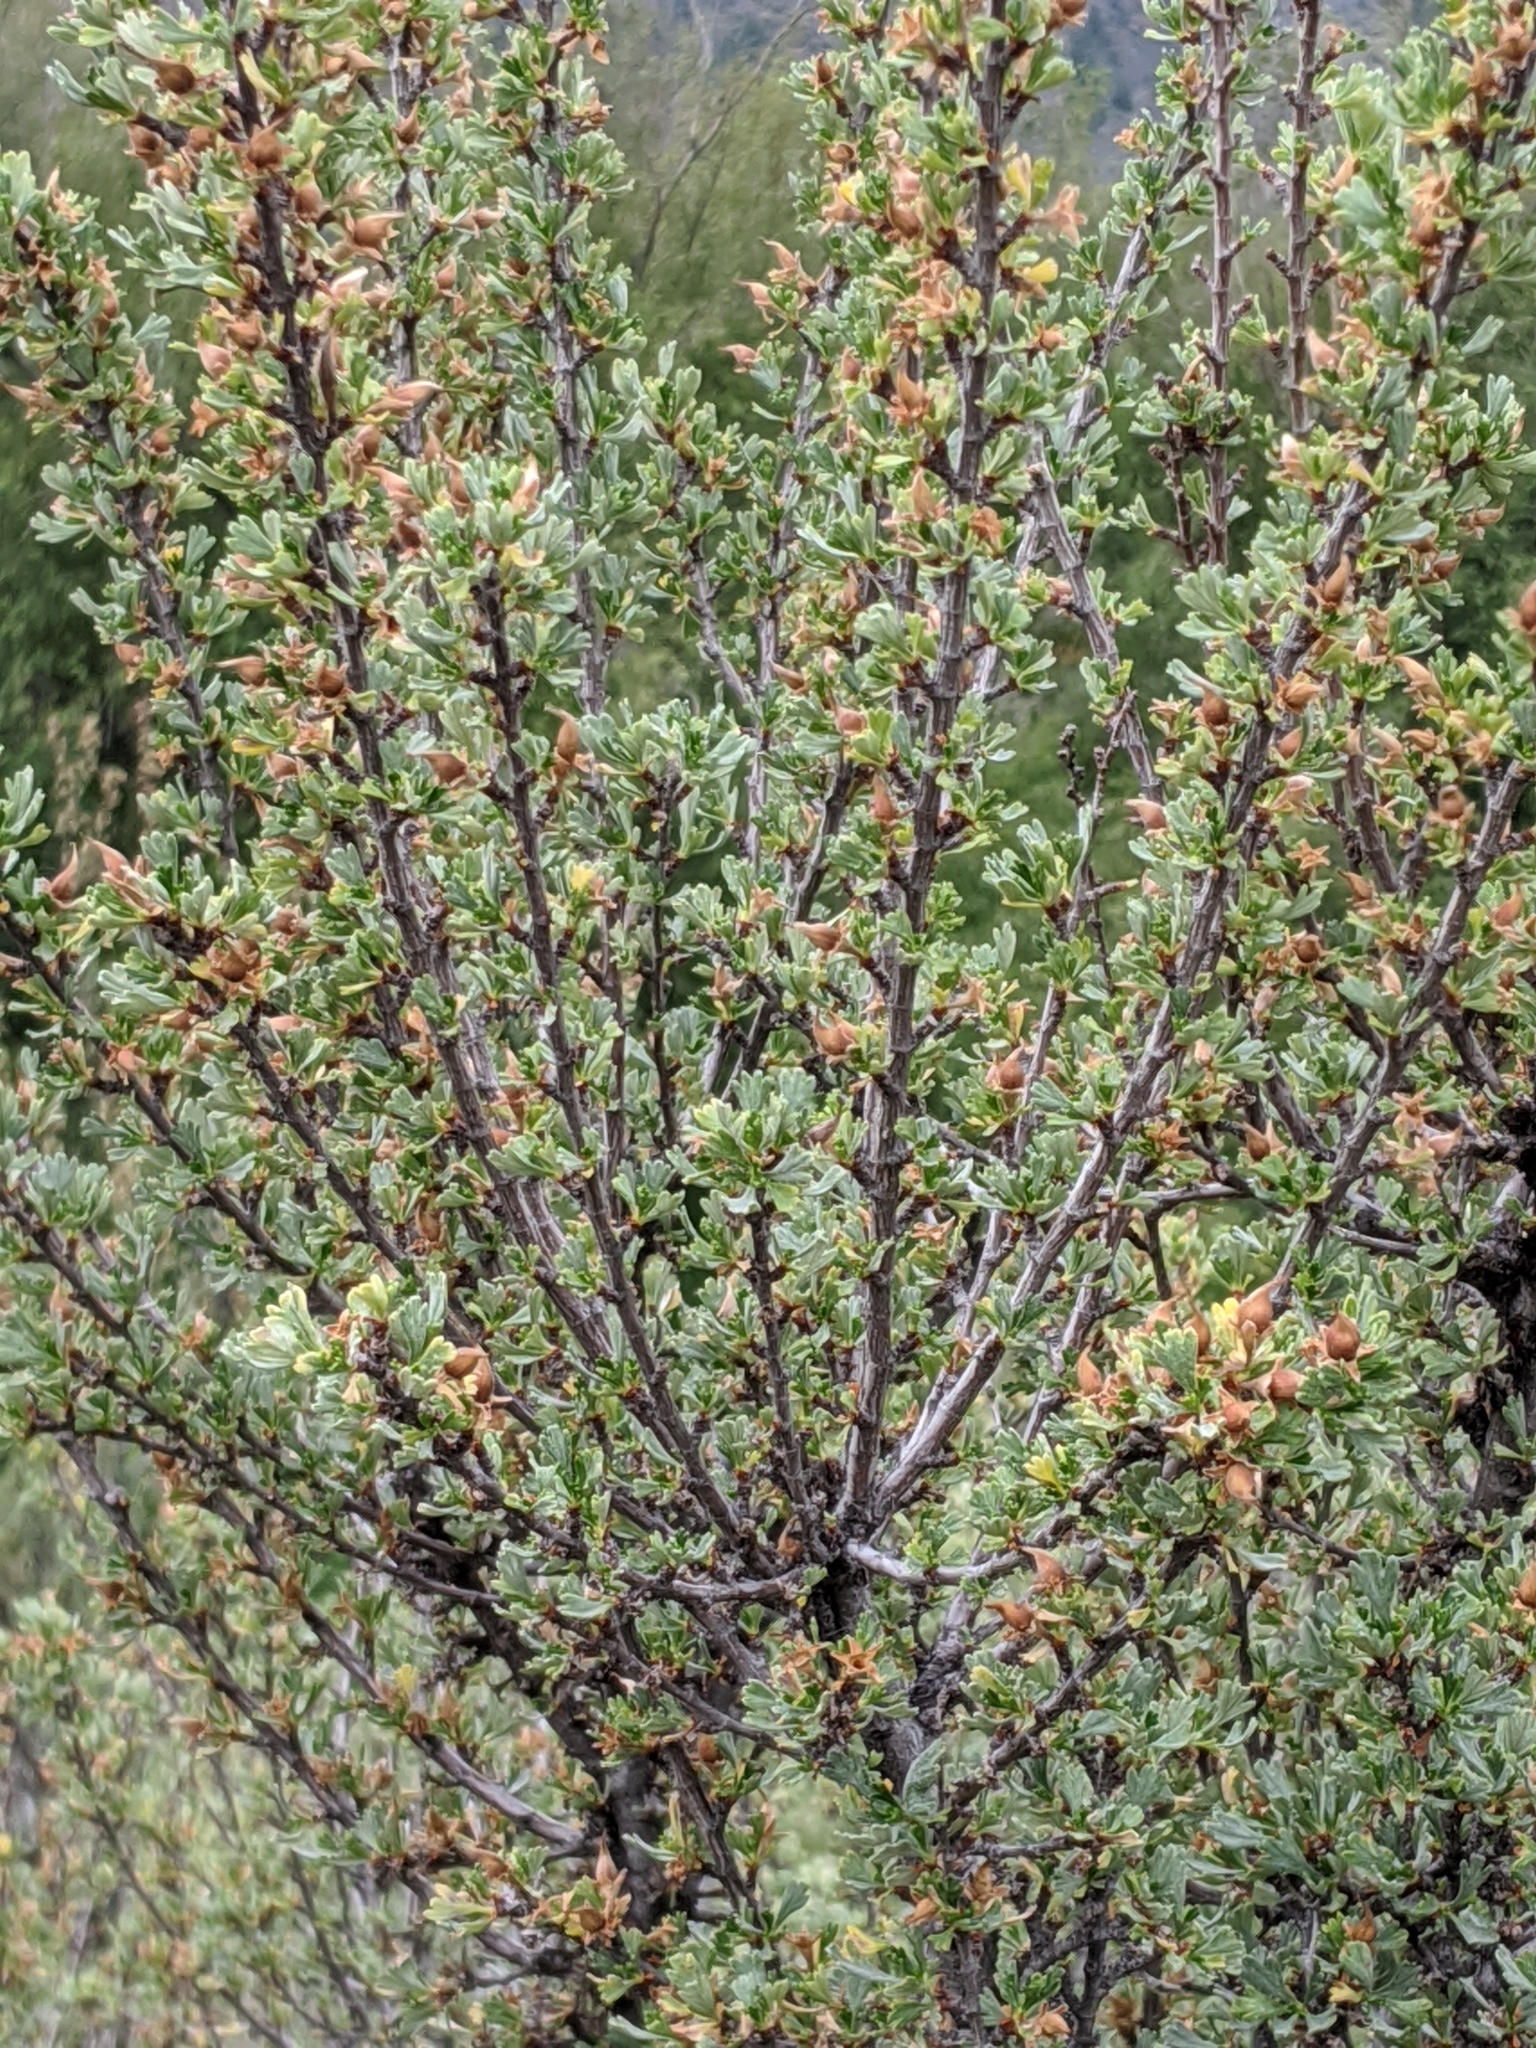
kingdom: Plantae
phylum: Tracheophyta
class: Magnoliopsida
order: Rosales
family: Rosaceae
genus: Purshia
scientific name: Purshia tridentata
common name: Antelope bitterbrush
